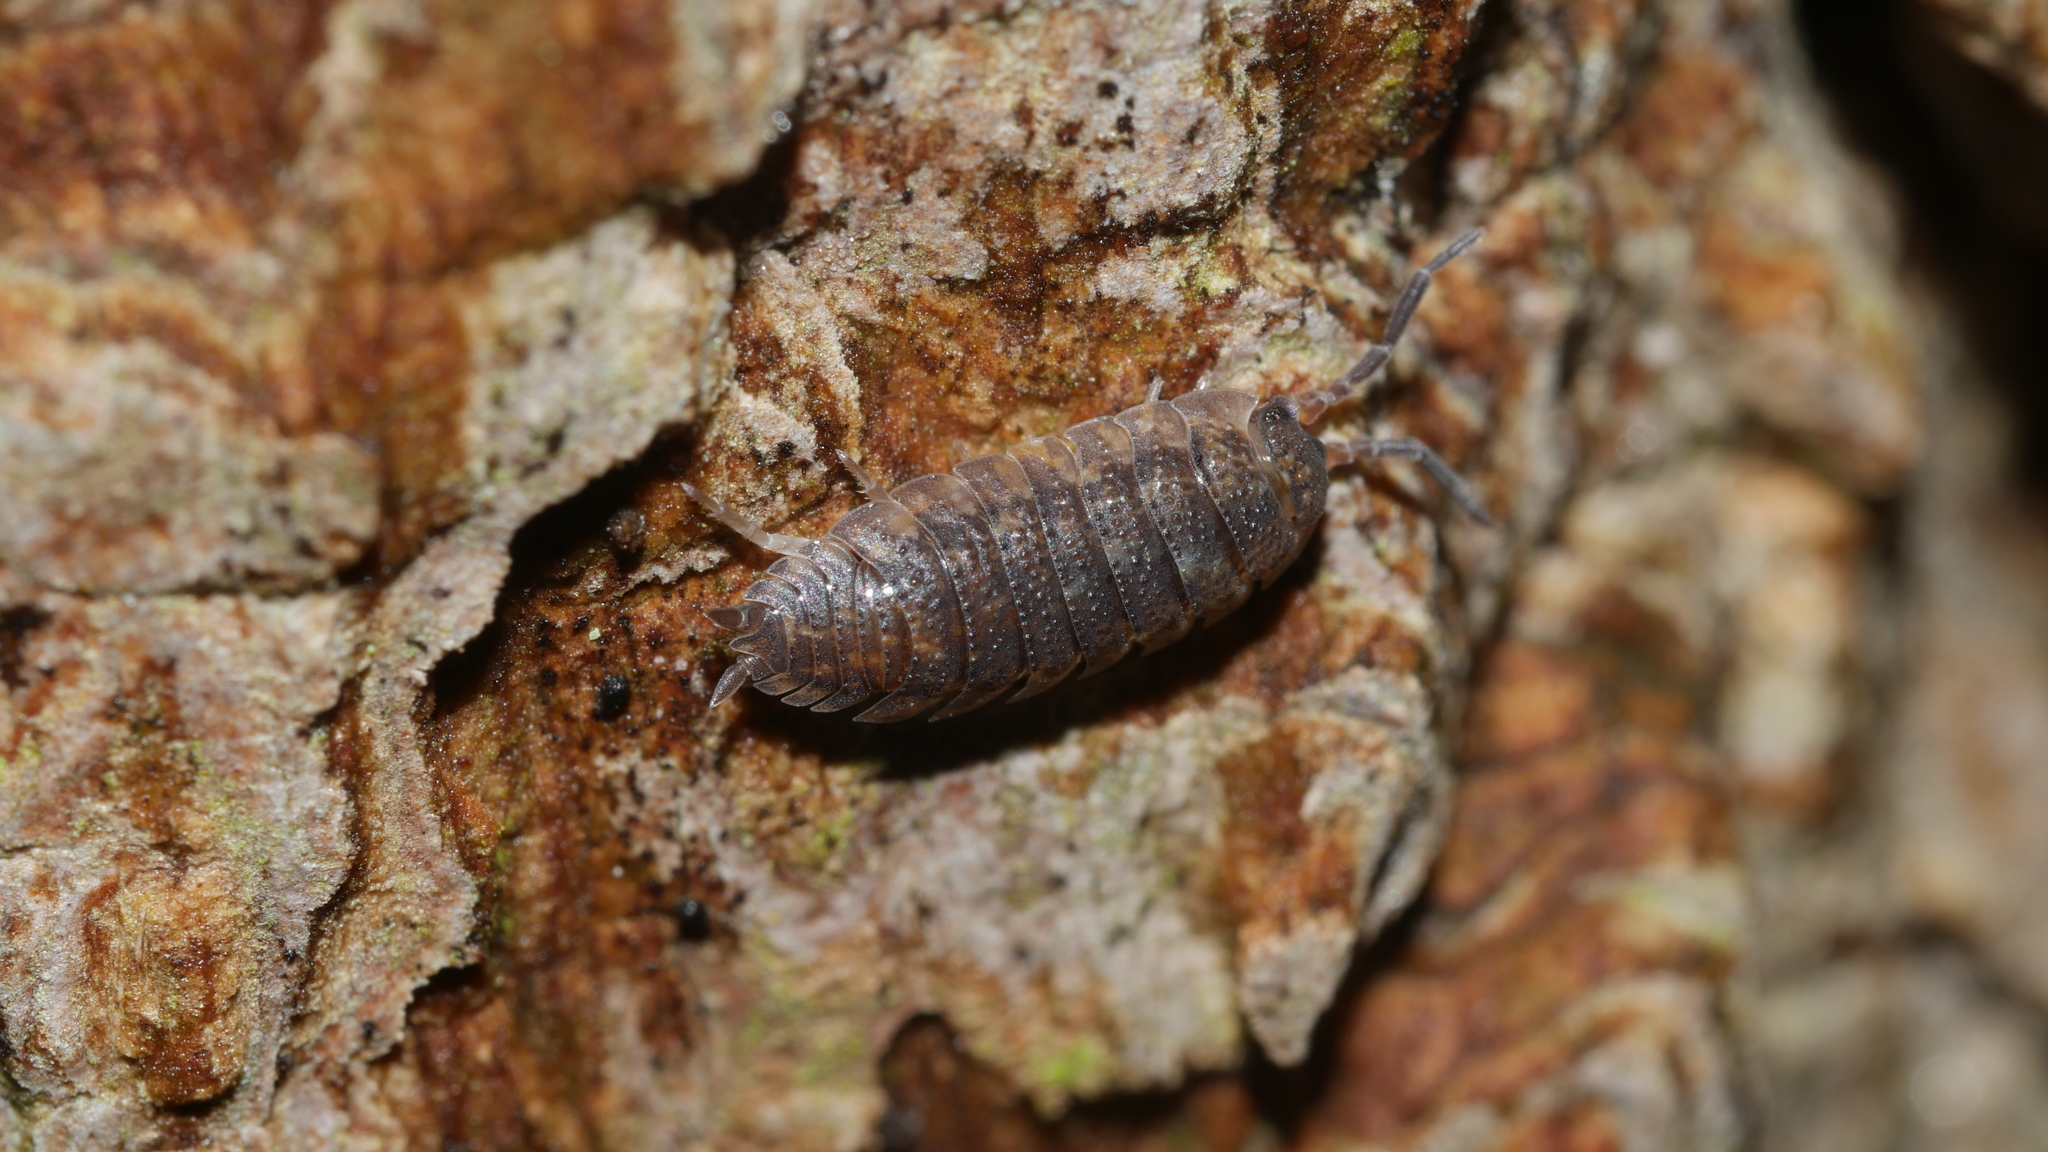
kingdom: Animalia
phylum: Arthropoda
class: Malacostraca
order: Isopoda
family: Porcellionidae
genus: Porcellio
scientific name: Porcellio scaber
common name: Common rough woodlouse
